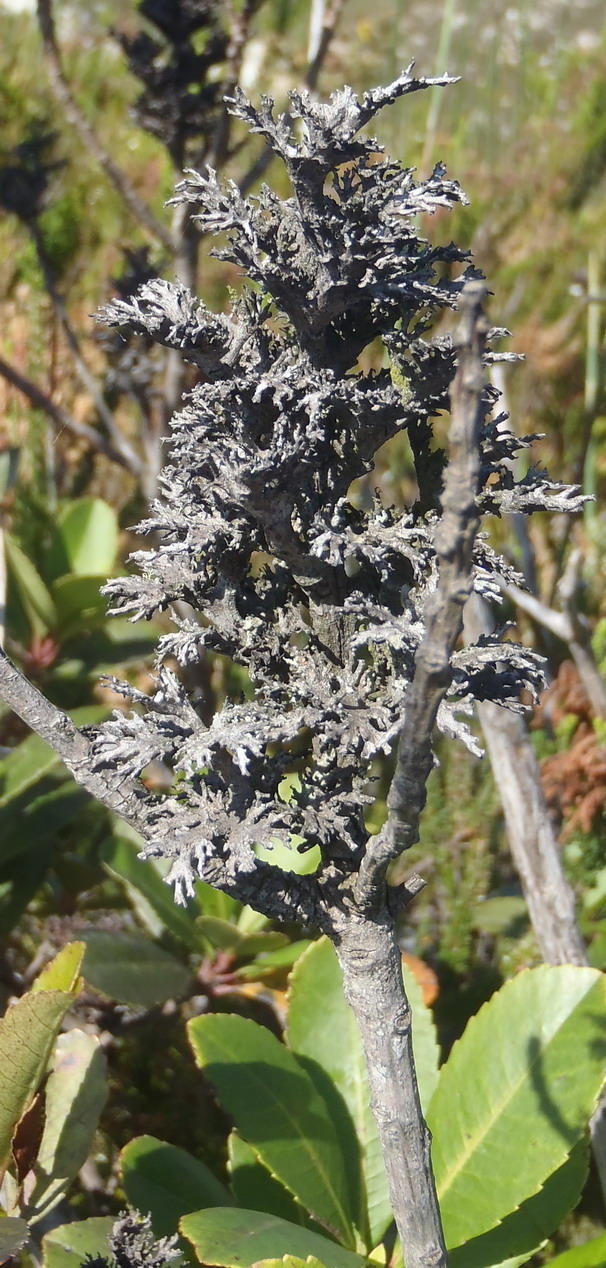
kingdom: Plantae
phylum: Tracheophyta
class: Magnoliopsida
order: Sapindales
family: Anacardiaceae
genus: Laurophyllus
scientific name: Laurophyllus capensis
